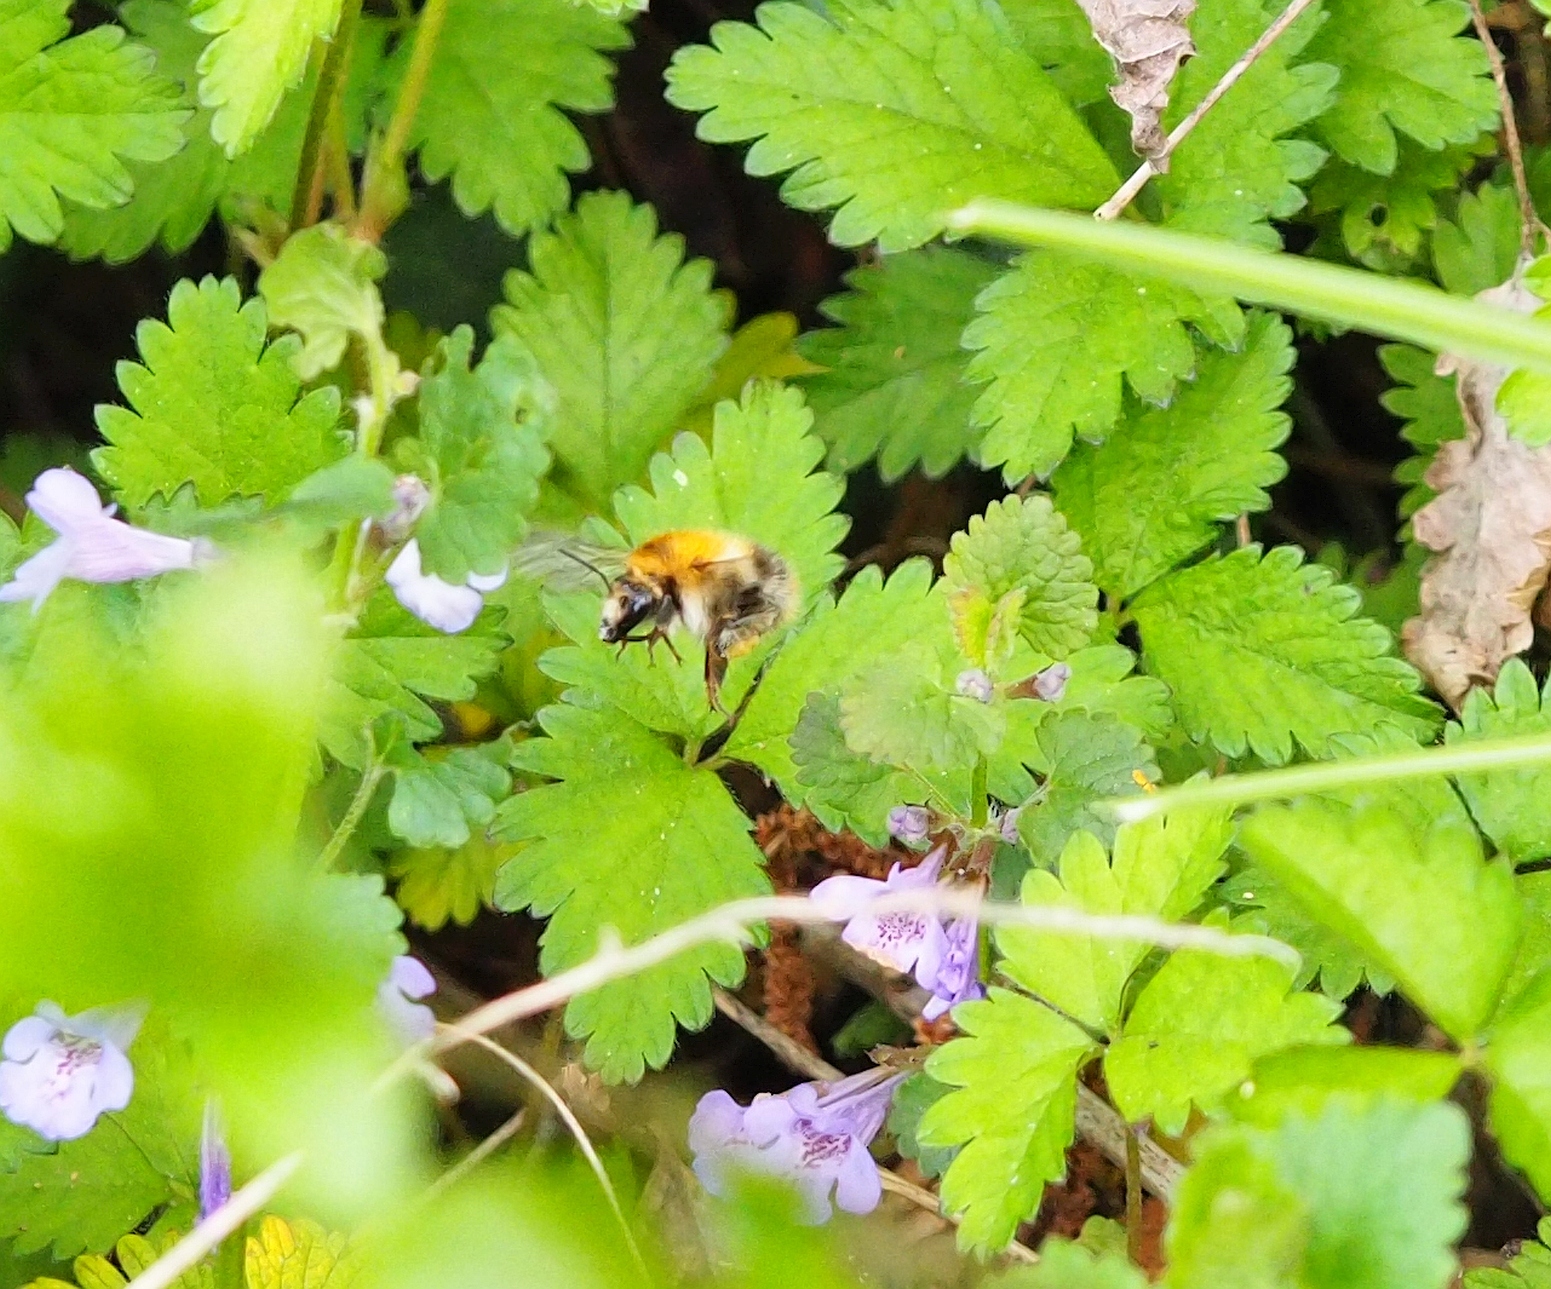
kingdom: Animalia
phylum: Arthropoda
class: Insecta
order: Hymenoptera
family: Apidae
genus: Bombus
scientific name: Bombus pascuorum
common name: Common carder bee
